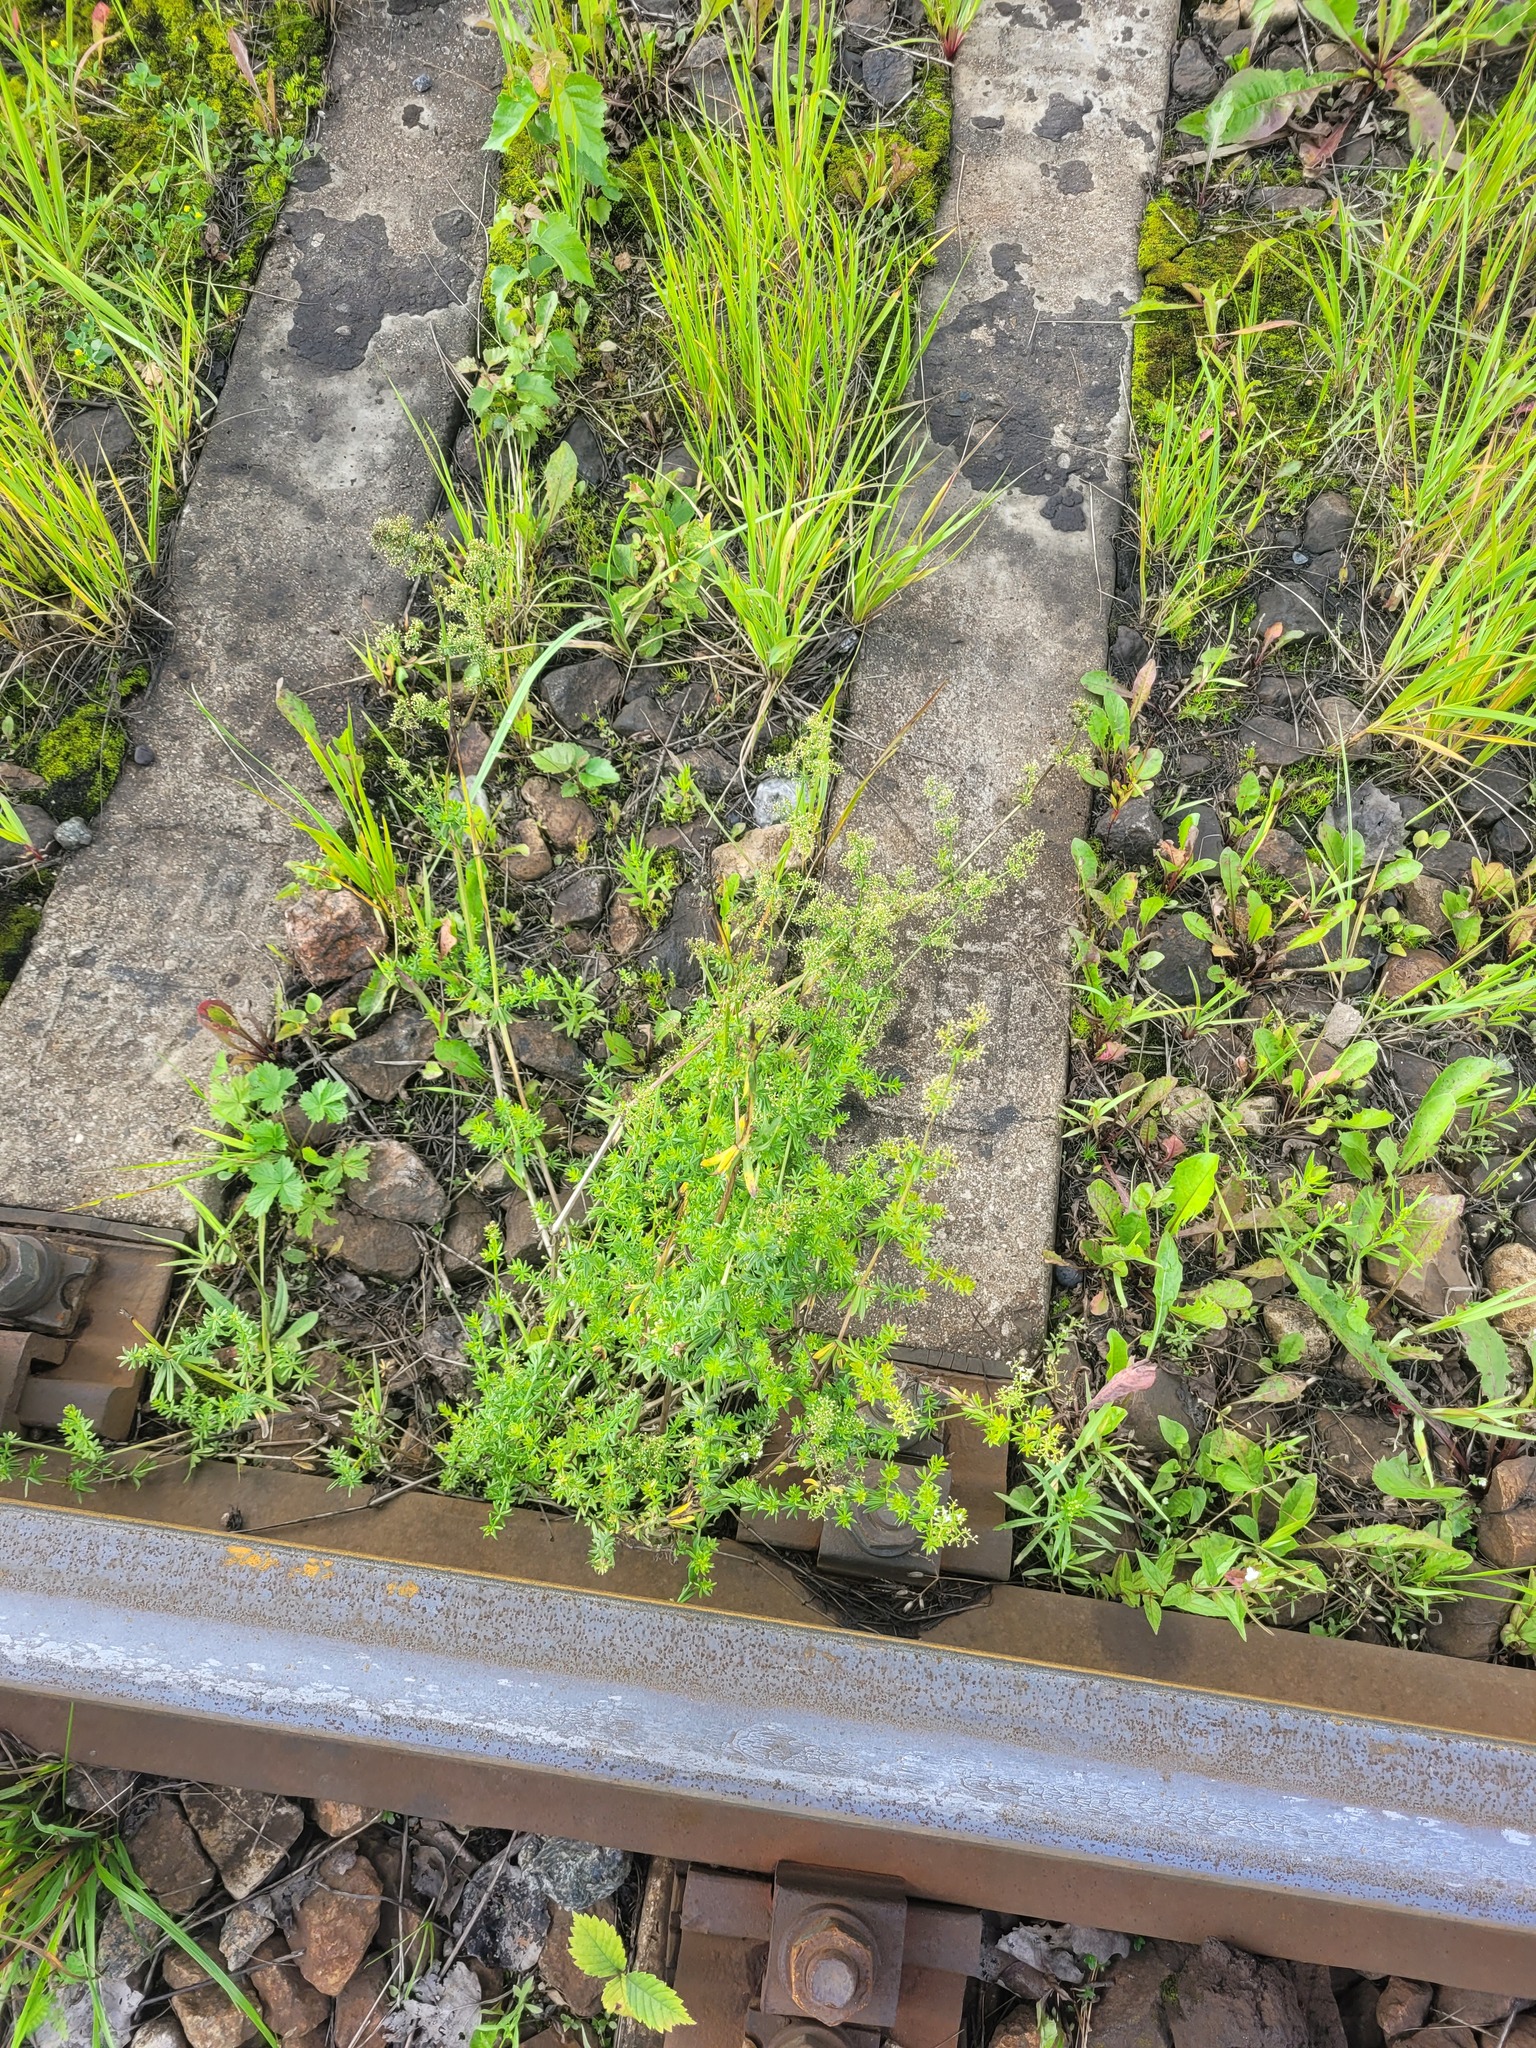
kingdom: Plantae
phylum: Tracheophyta
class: Magnoliopsida
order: Gentianales
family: Rubiaceae
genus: Galium
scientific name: Galium mollugo
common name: Hedge bedstraw
